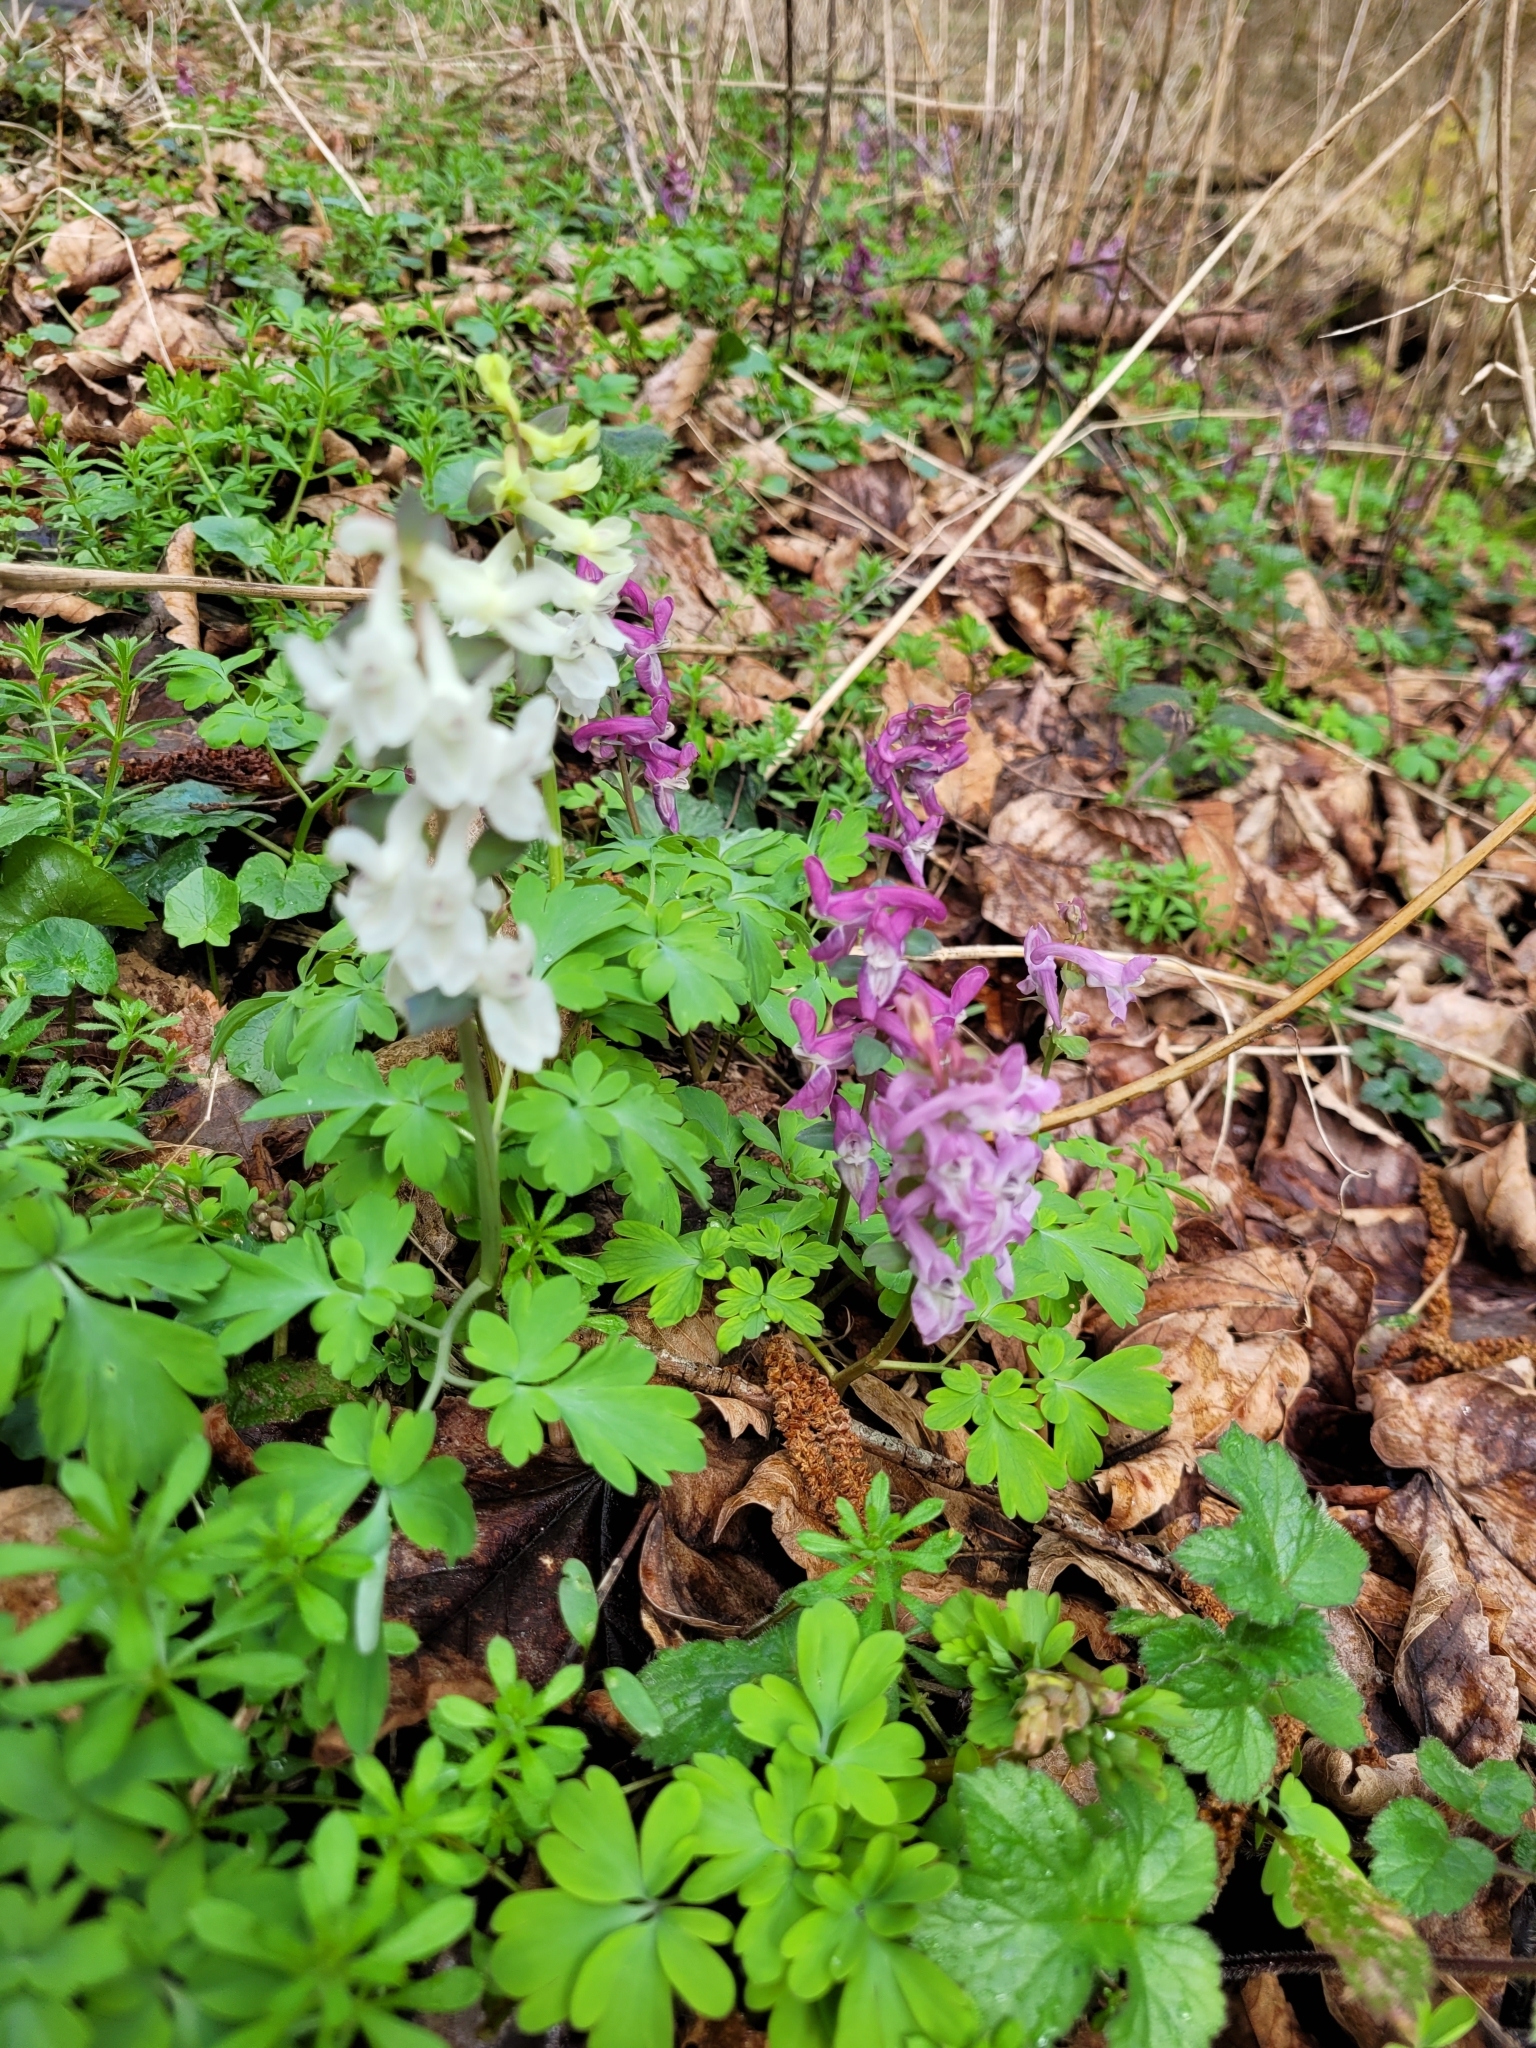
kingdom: Plantae
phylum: Tracheophyta
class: Magnoliopsida
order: Ranunculales
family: Papaveraceae
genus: Corydalis
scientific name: Corydalis cava
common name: Hollowroot
